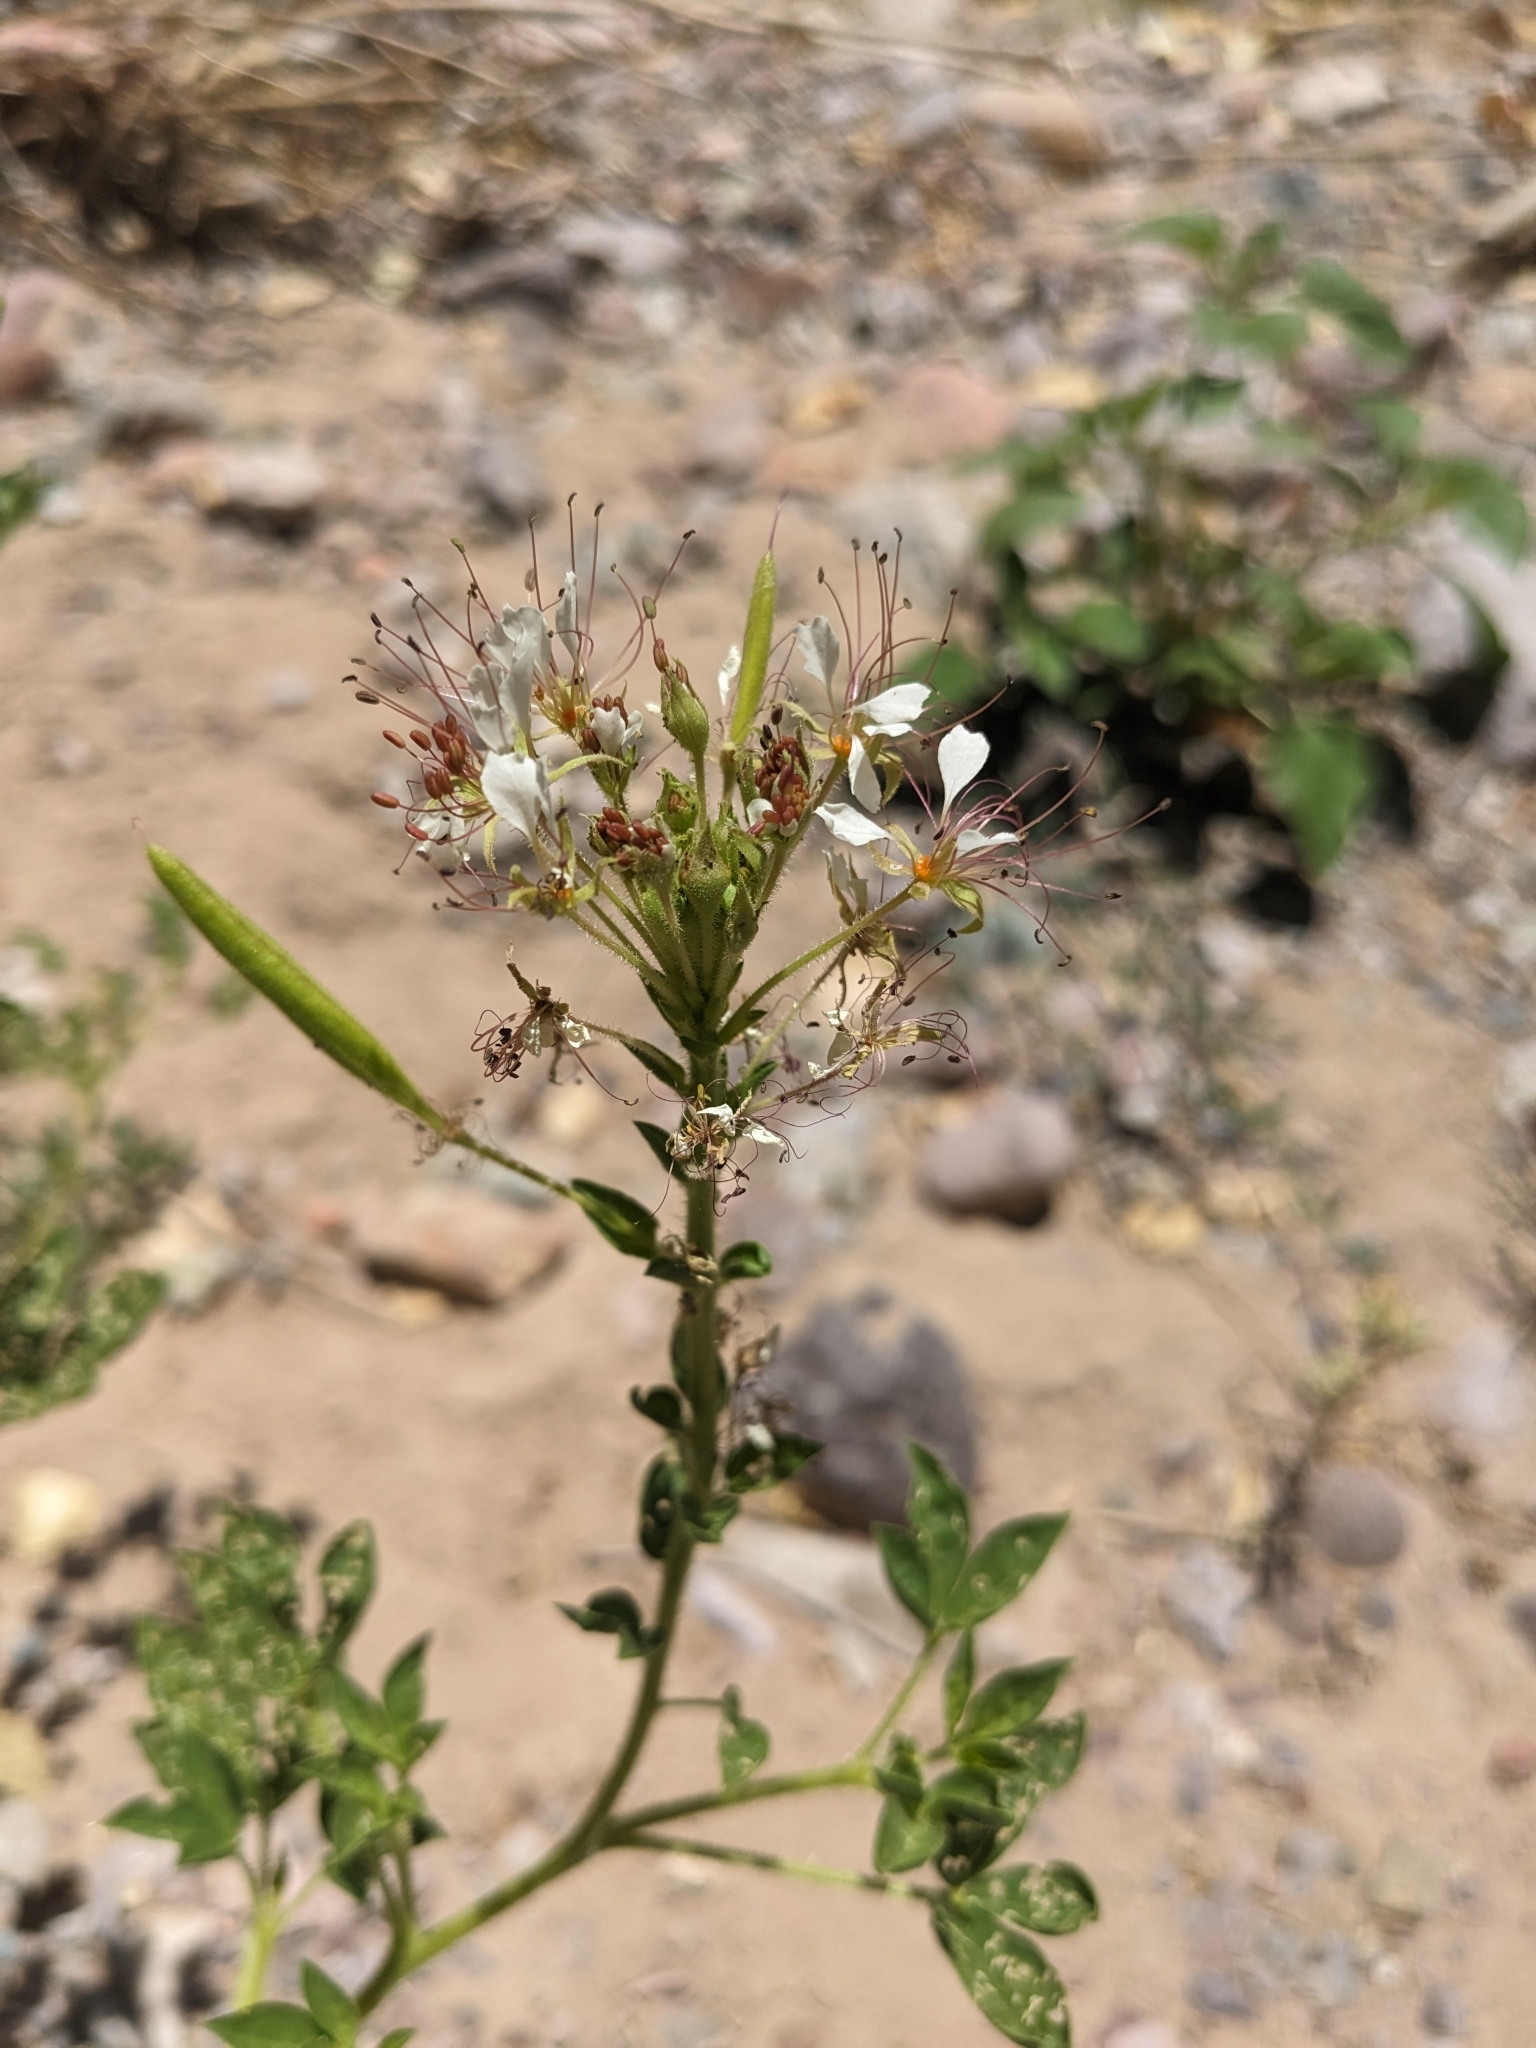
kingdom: Plantae
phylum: Tracheophyta
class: Magnoliopsida
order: Brassicales
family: Cleomaceae
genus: Polanisia
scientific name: Polanisia dodecandra
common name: Clammyweed
